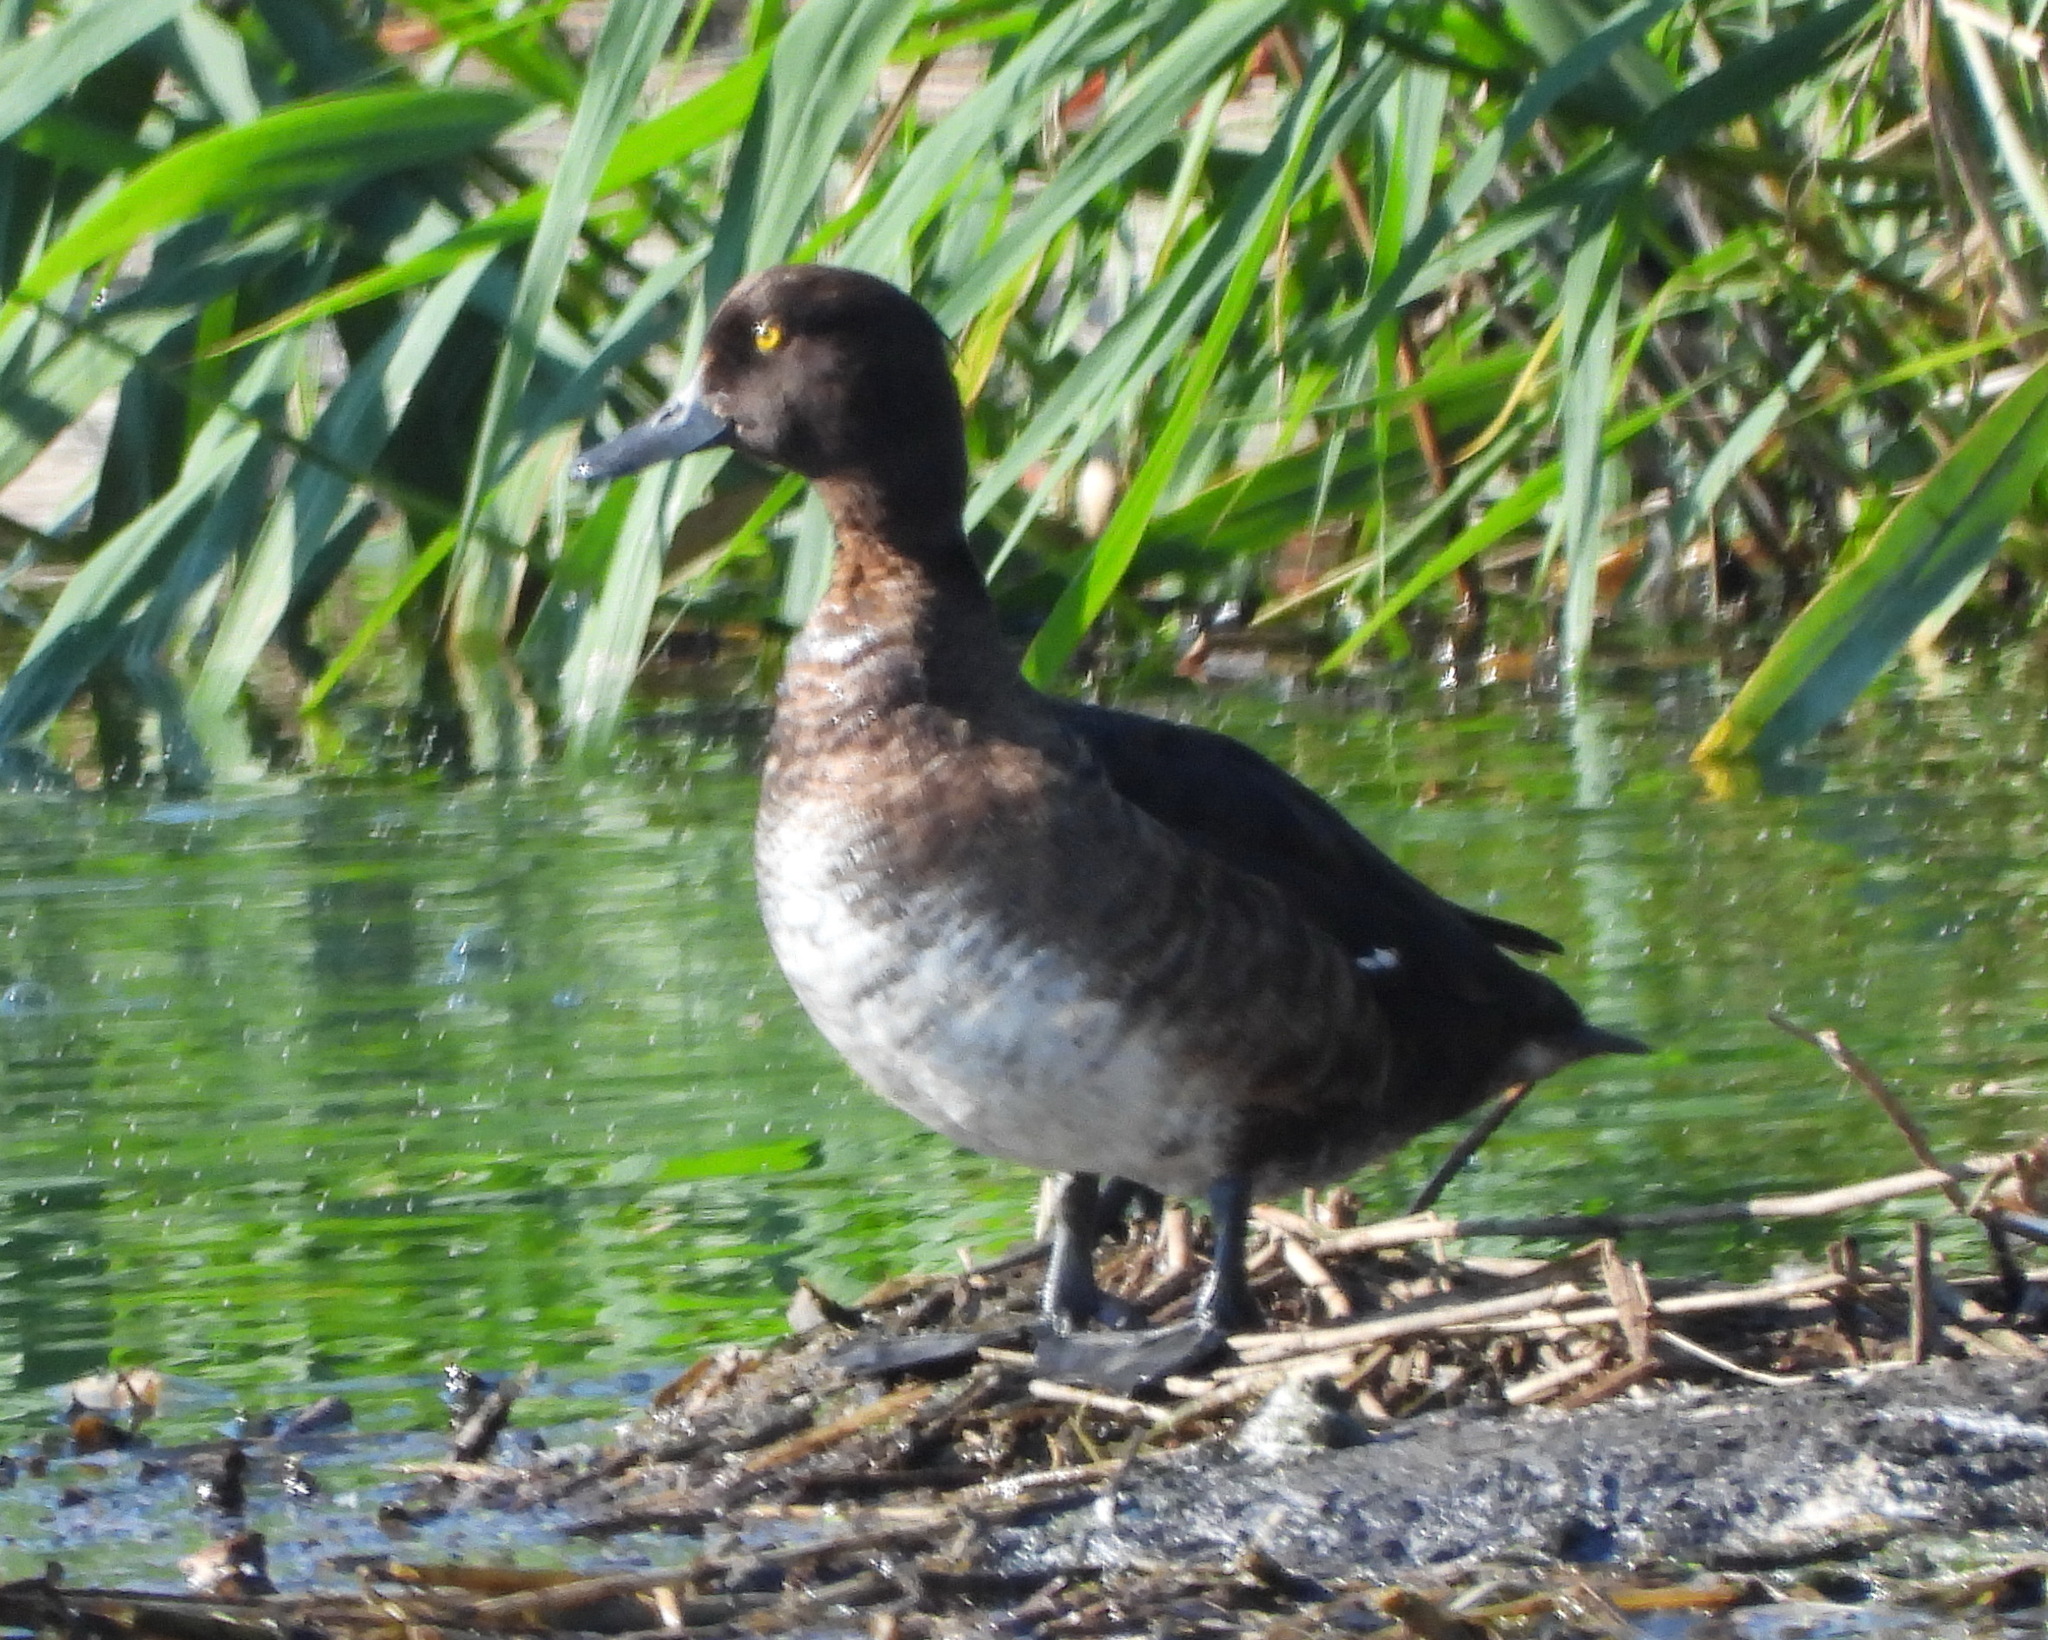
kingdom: Animalia
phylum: Chordata
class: Aves
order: Anseriformes
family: Anatidae
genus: Aythya
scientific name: Aythya fuligula
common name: Tufted duck
